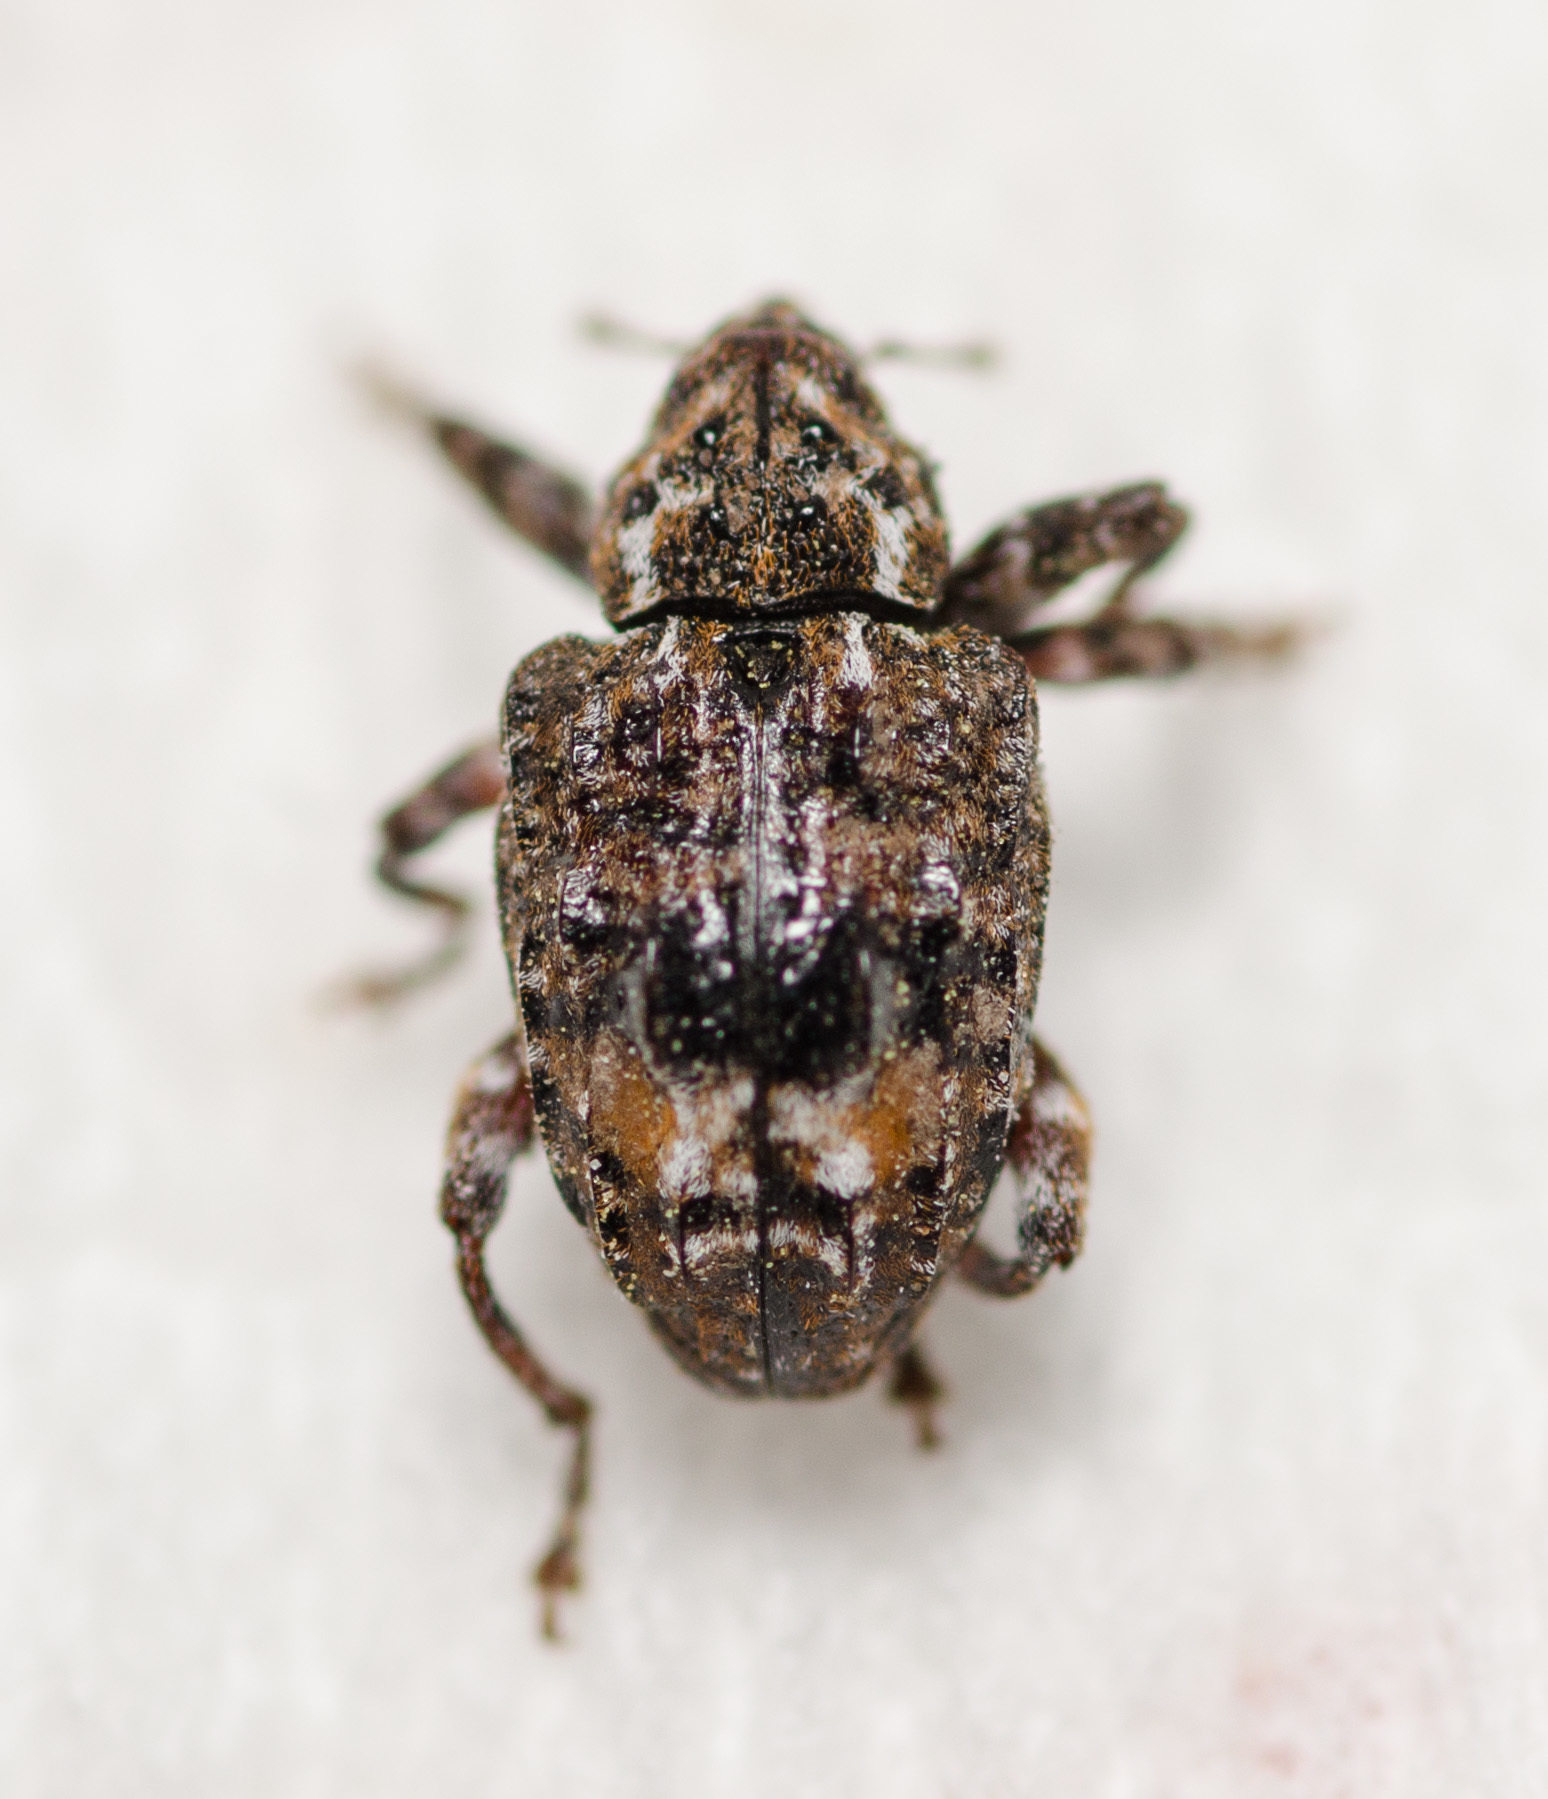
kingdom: Animalia
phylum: Arthropoda
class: Insecta
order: Coleoptera
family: Curculionidae
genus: Conotrachelus
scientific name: Conotrachelus nenuphar
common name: Plum curculio
